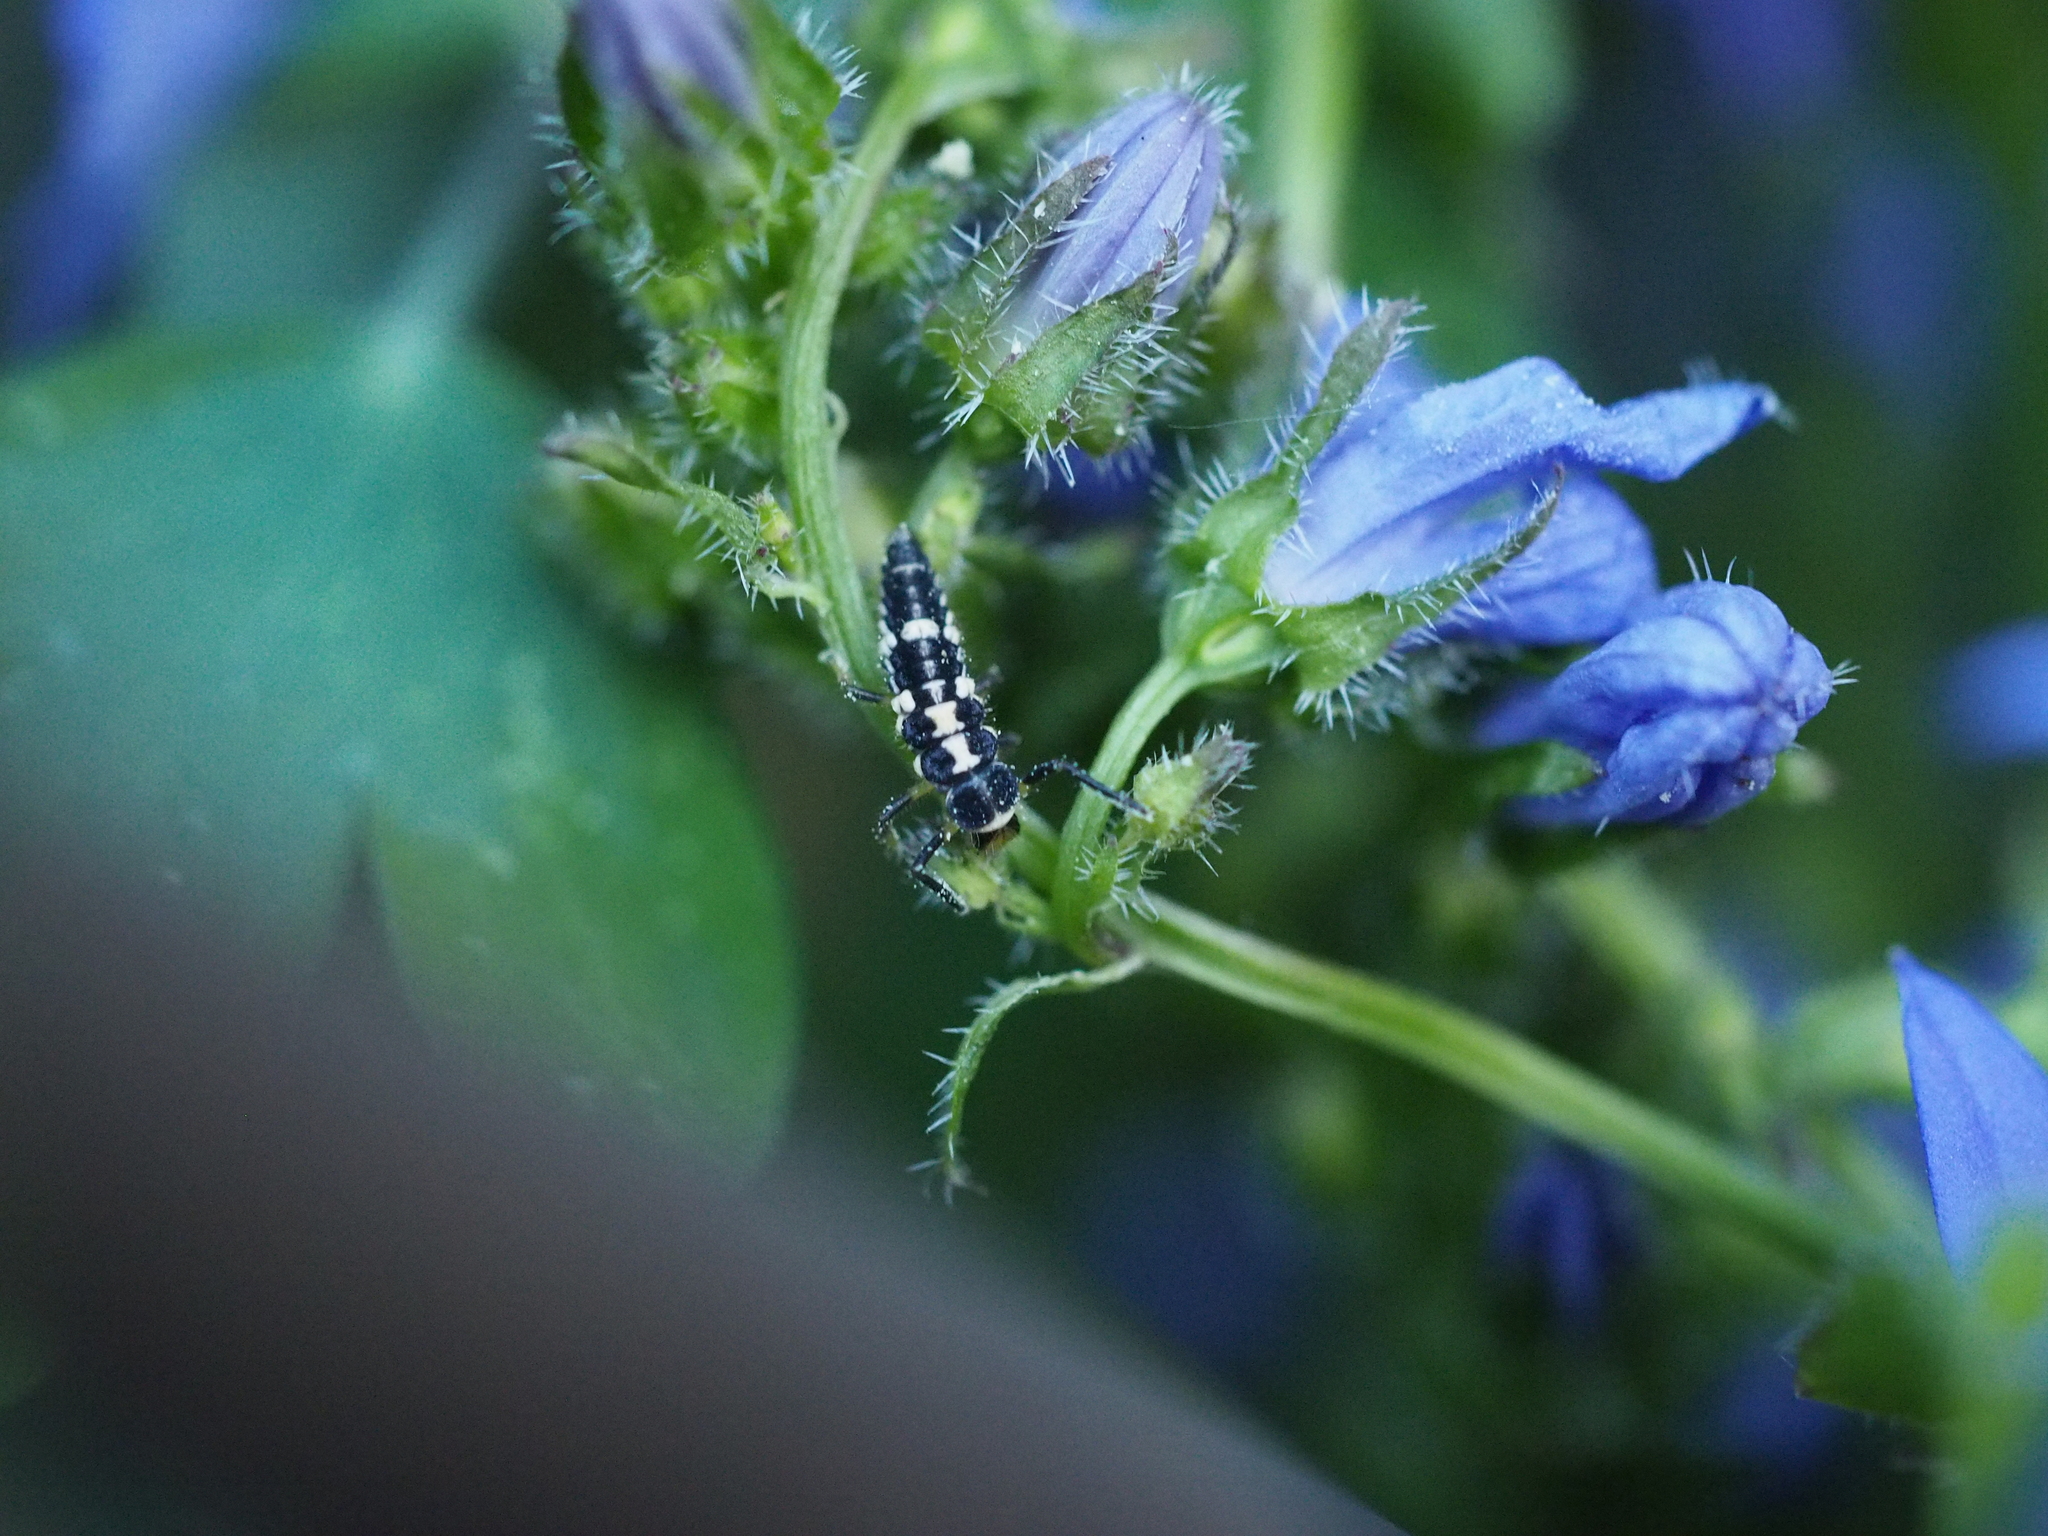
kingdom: Animalia
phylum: Arthropoda
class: Insecta
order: Coleoptera
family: Coccinellidae
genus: Propylaea
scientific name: Propylaea quatuordecimpunctata
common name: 14-spotted ladybird beetle
